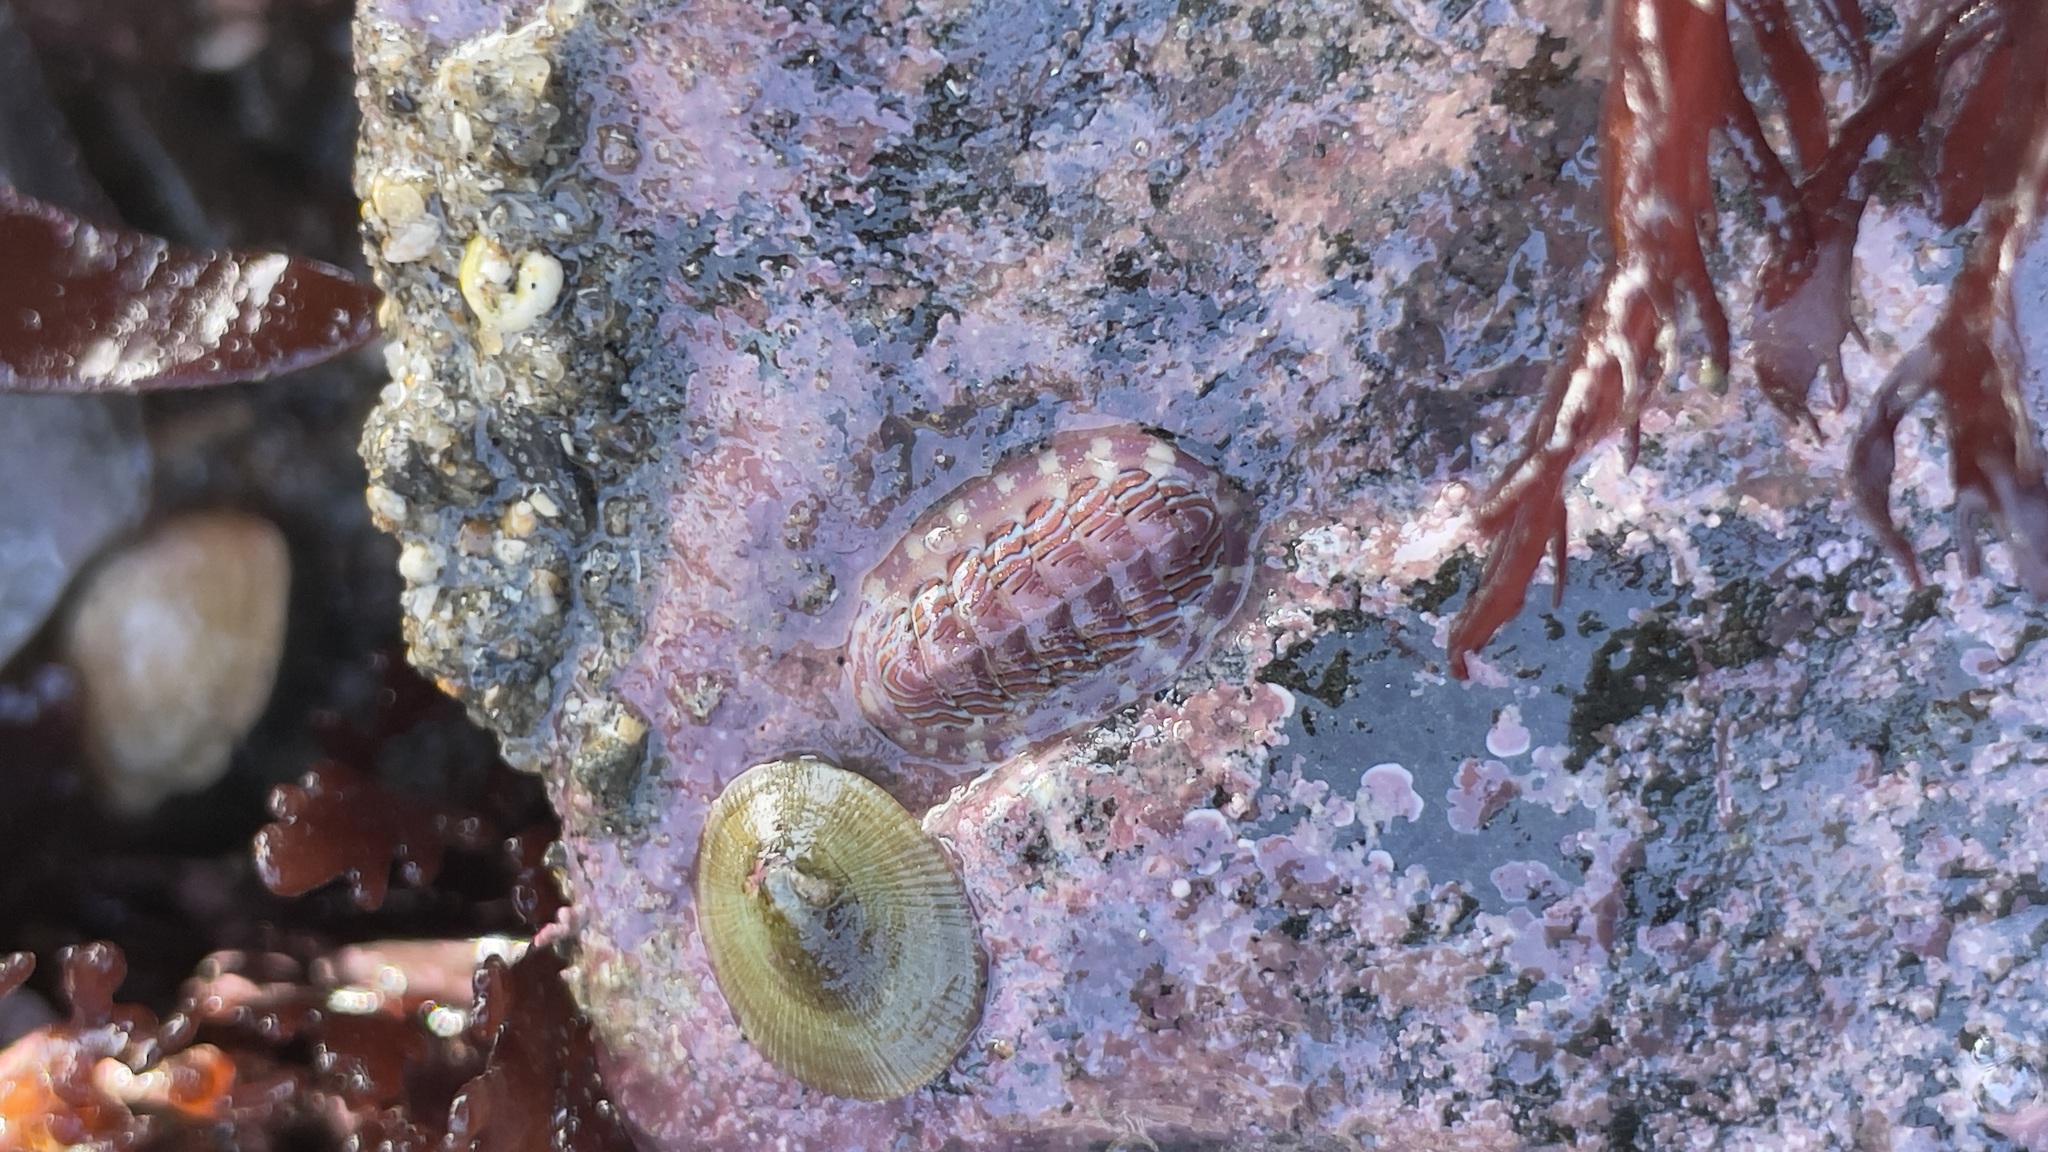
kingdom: Animalia
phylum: Mollusca
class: Polyplacophora
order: Chitonida
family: Tonicellidae
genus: Tonicella
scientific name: Tonicella lineata
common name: Lined chiton
